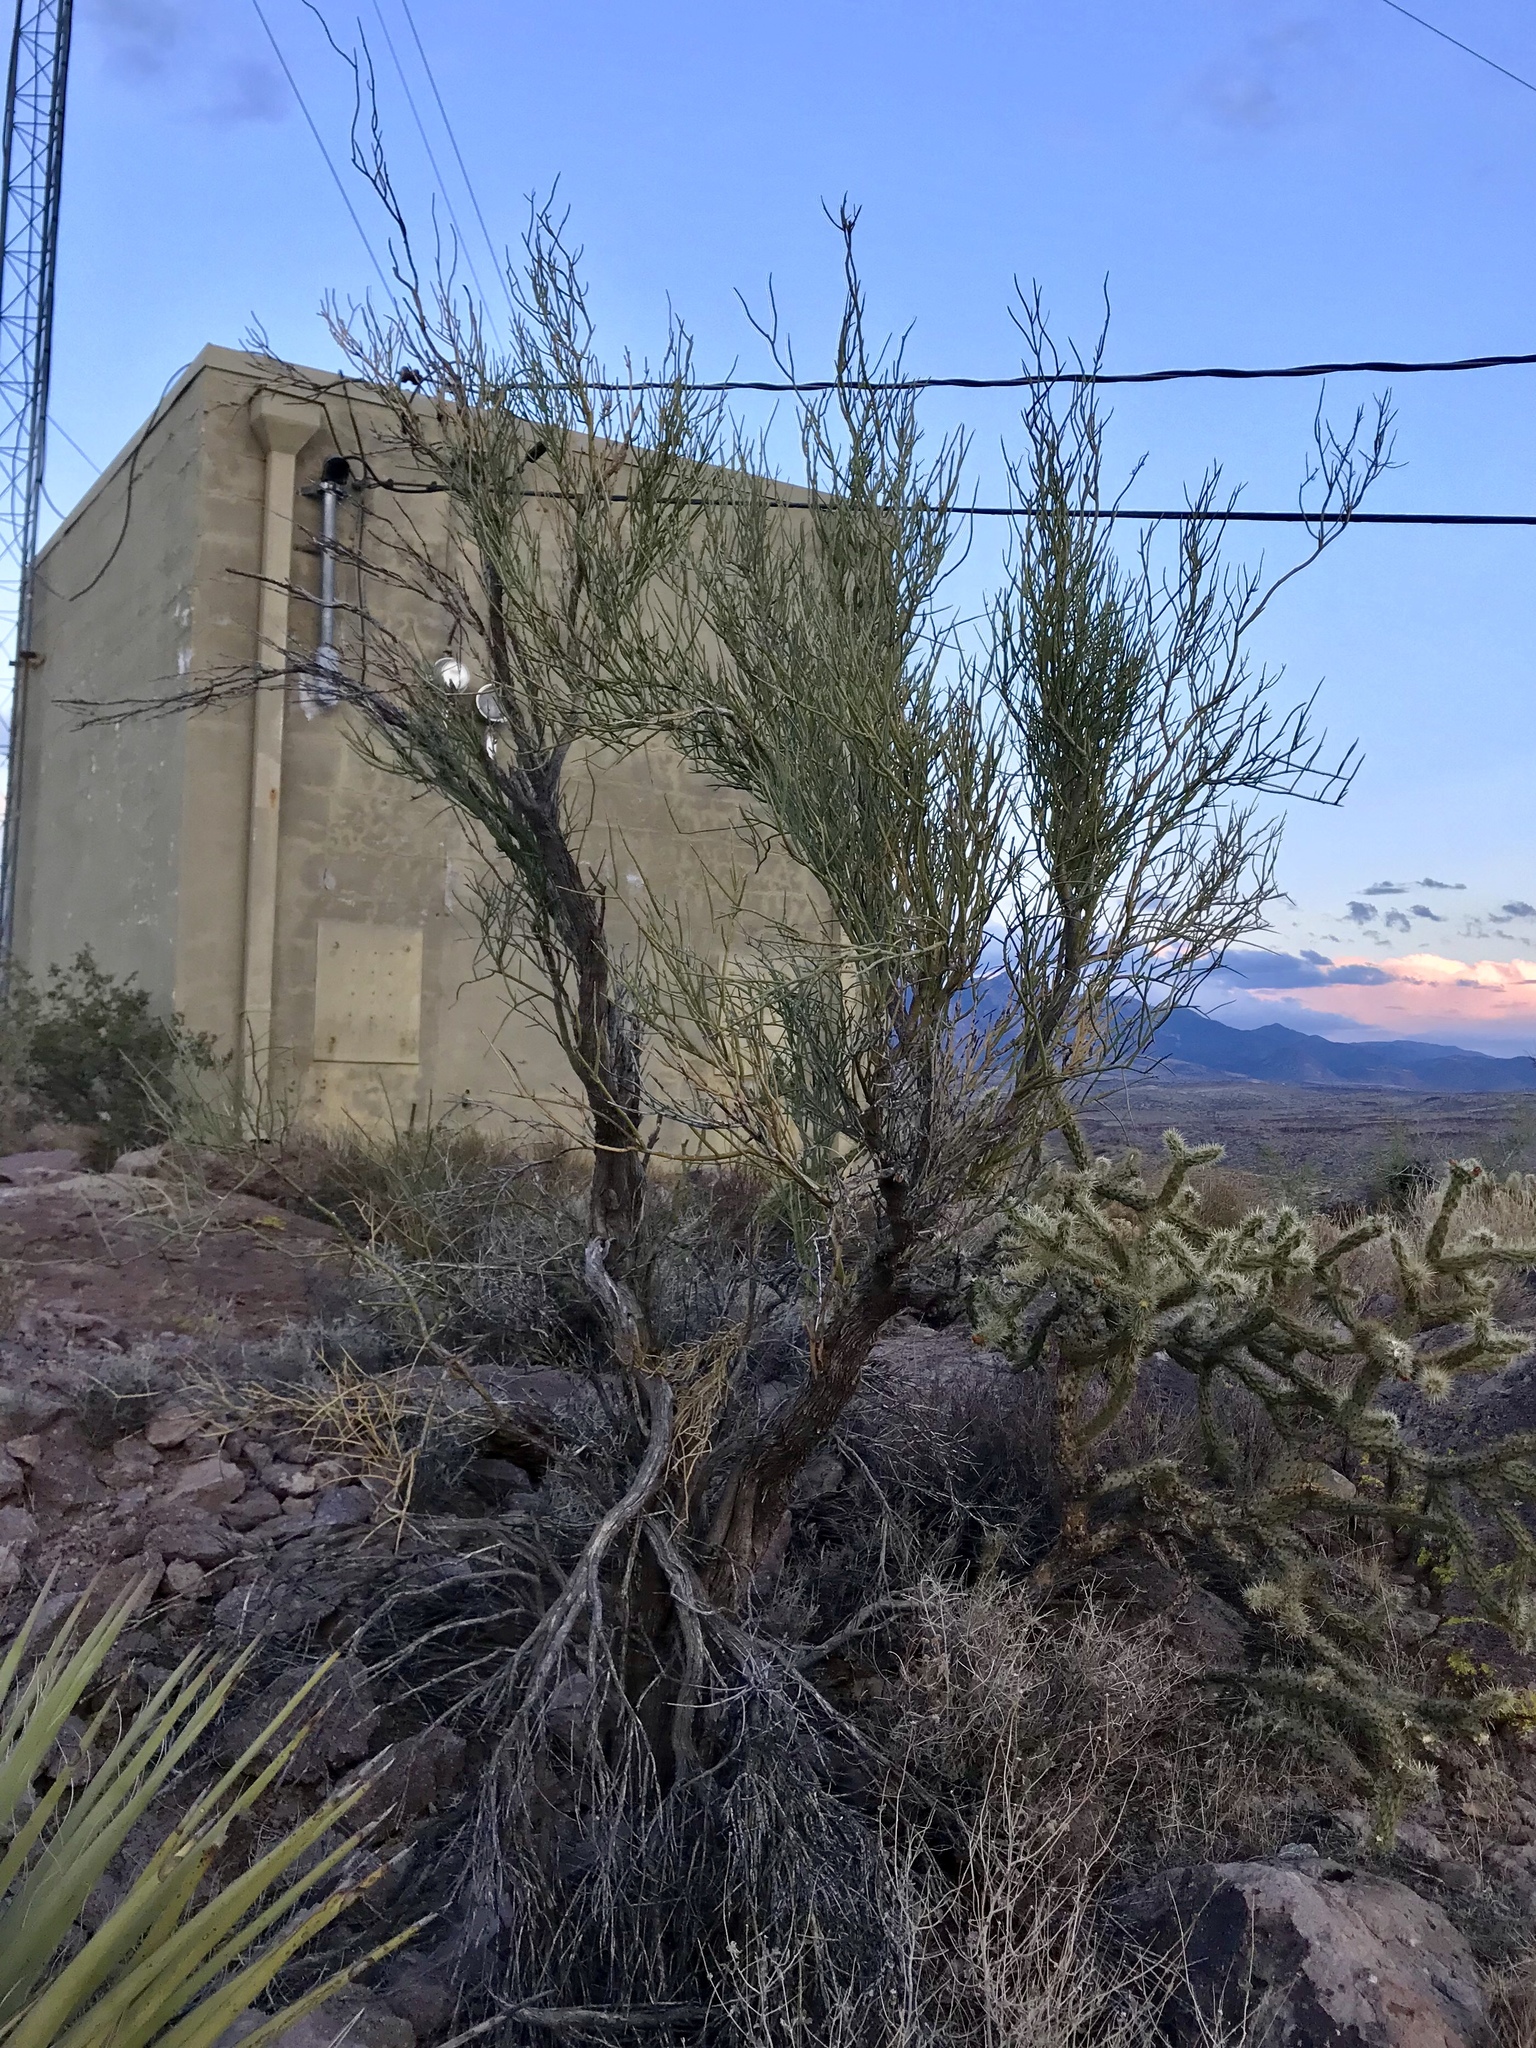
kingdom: Plantae
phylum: Tracheophyta
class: Magnoliopsida
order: Celastrales
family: Celastraceae
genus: Canotia
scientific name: Canotia holacantha
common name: Crucifixion thorns
